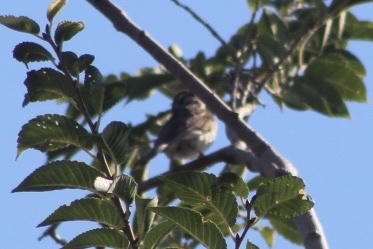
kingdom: Animalia
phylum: Chordata
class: Aves
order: Passeriformes
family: Passerellidae
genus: Spizella
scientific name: Spizella passerina
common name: Chipping sparrow
